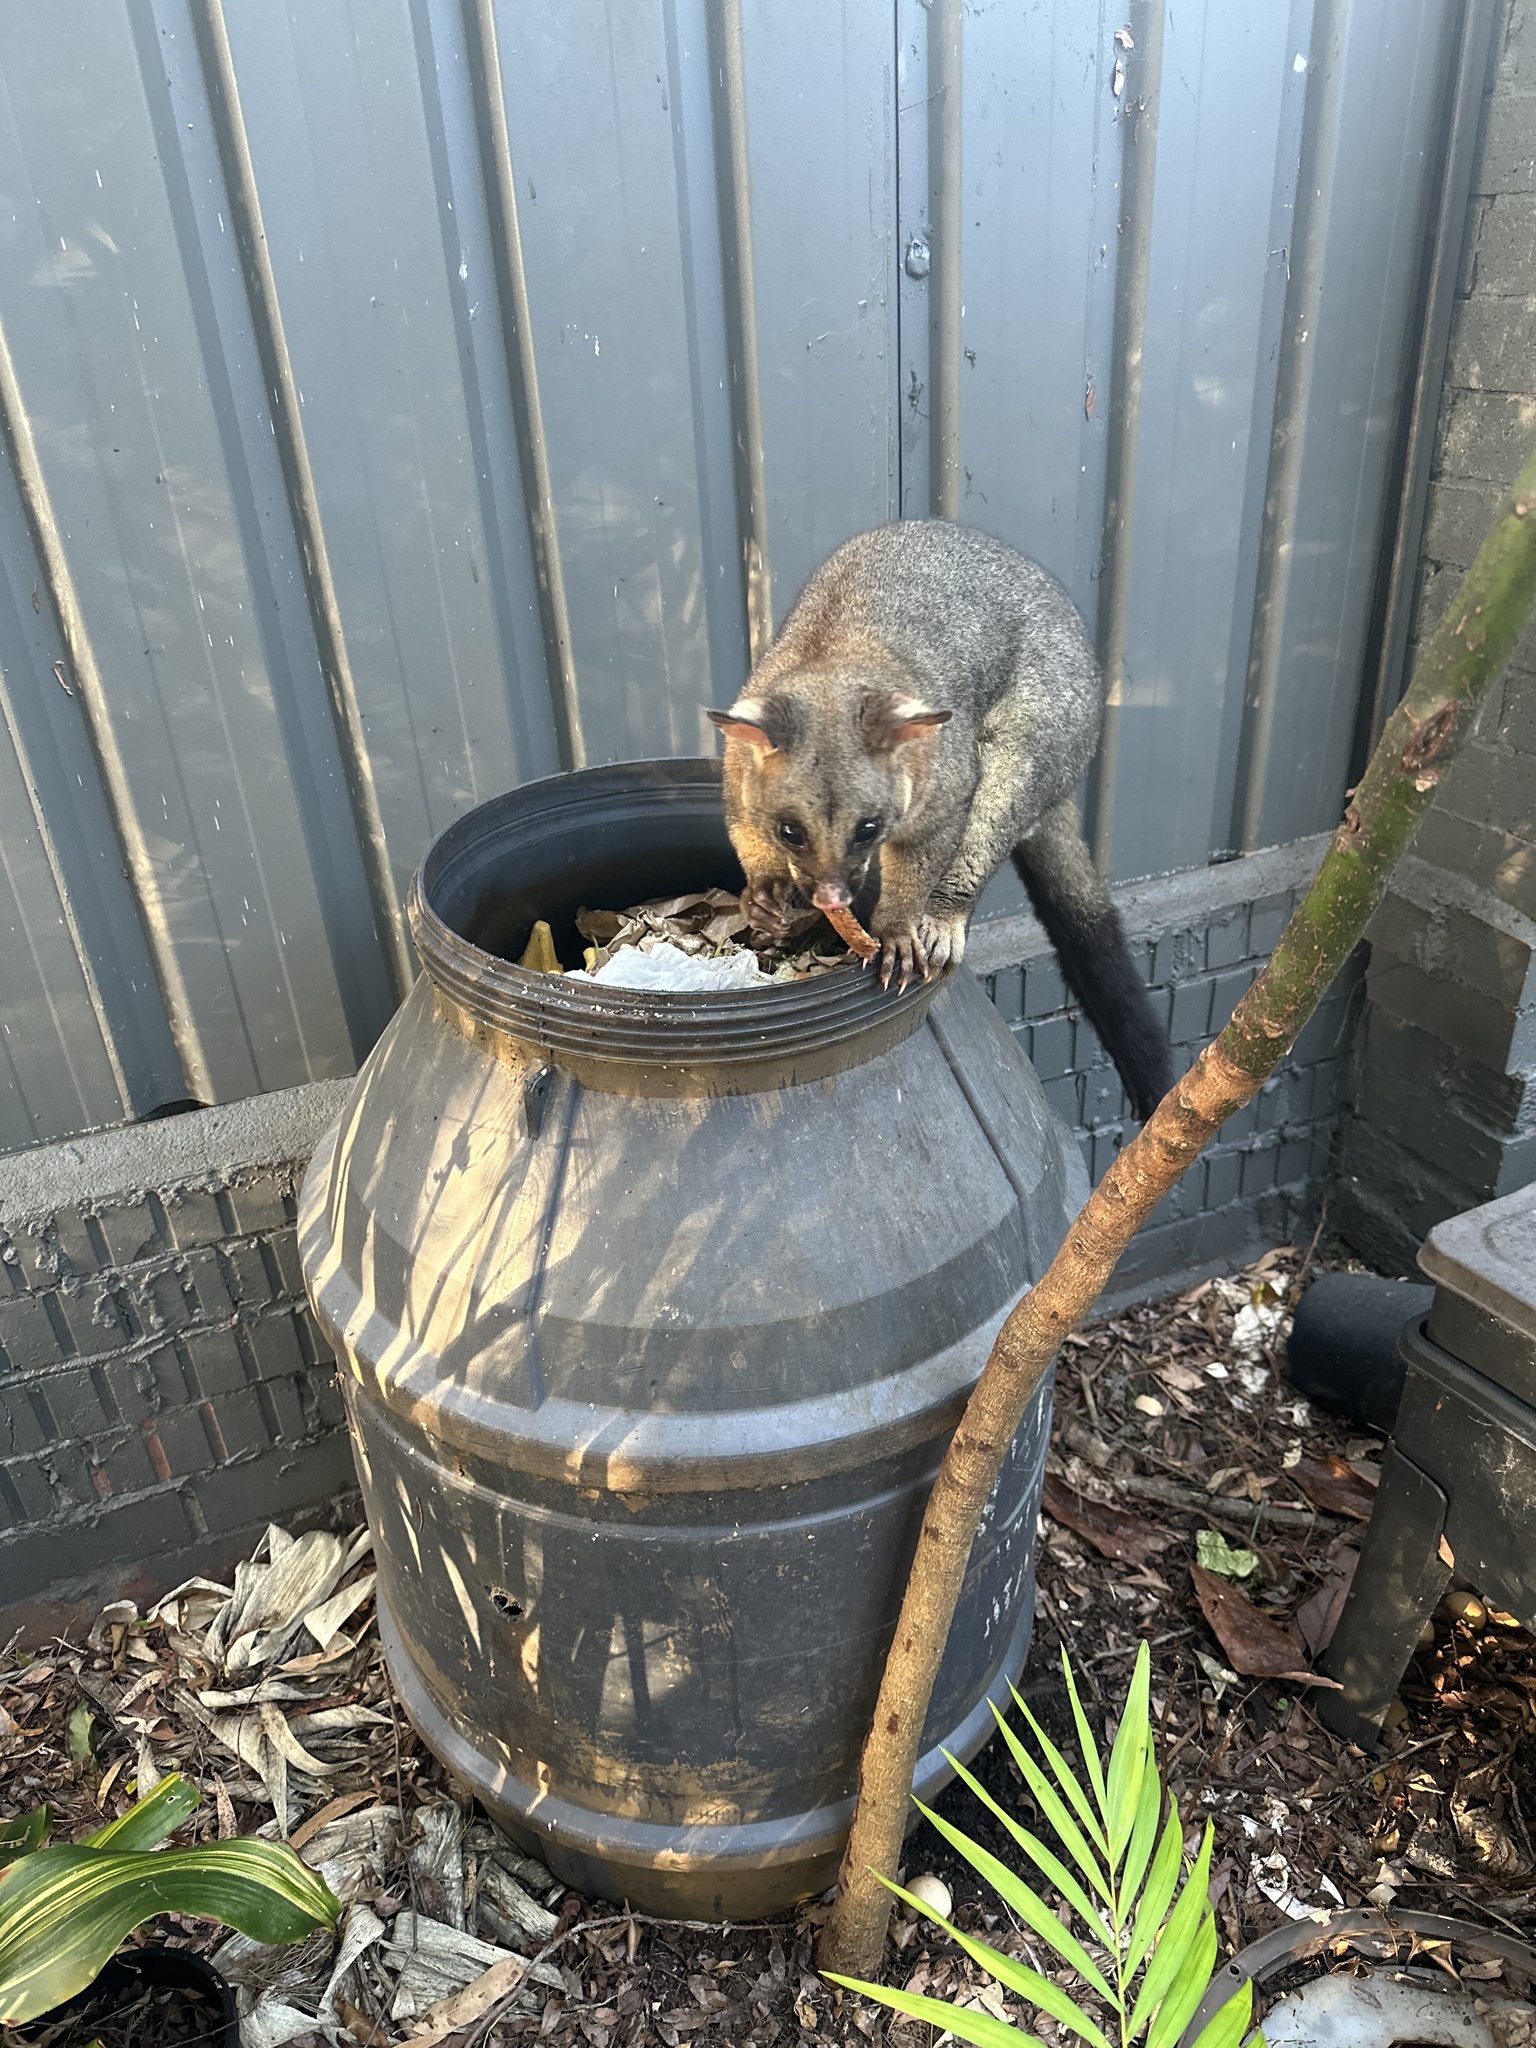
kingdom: Animalia
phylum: Chordata
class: Mammalia
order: Diprotodontia
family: Phalangeridae
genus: Trichosurus
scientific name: Trichosurus vulpecula
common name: Common brushtail
